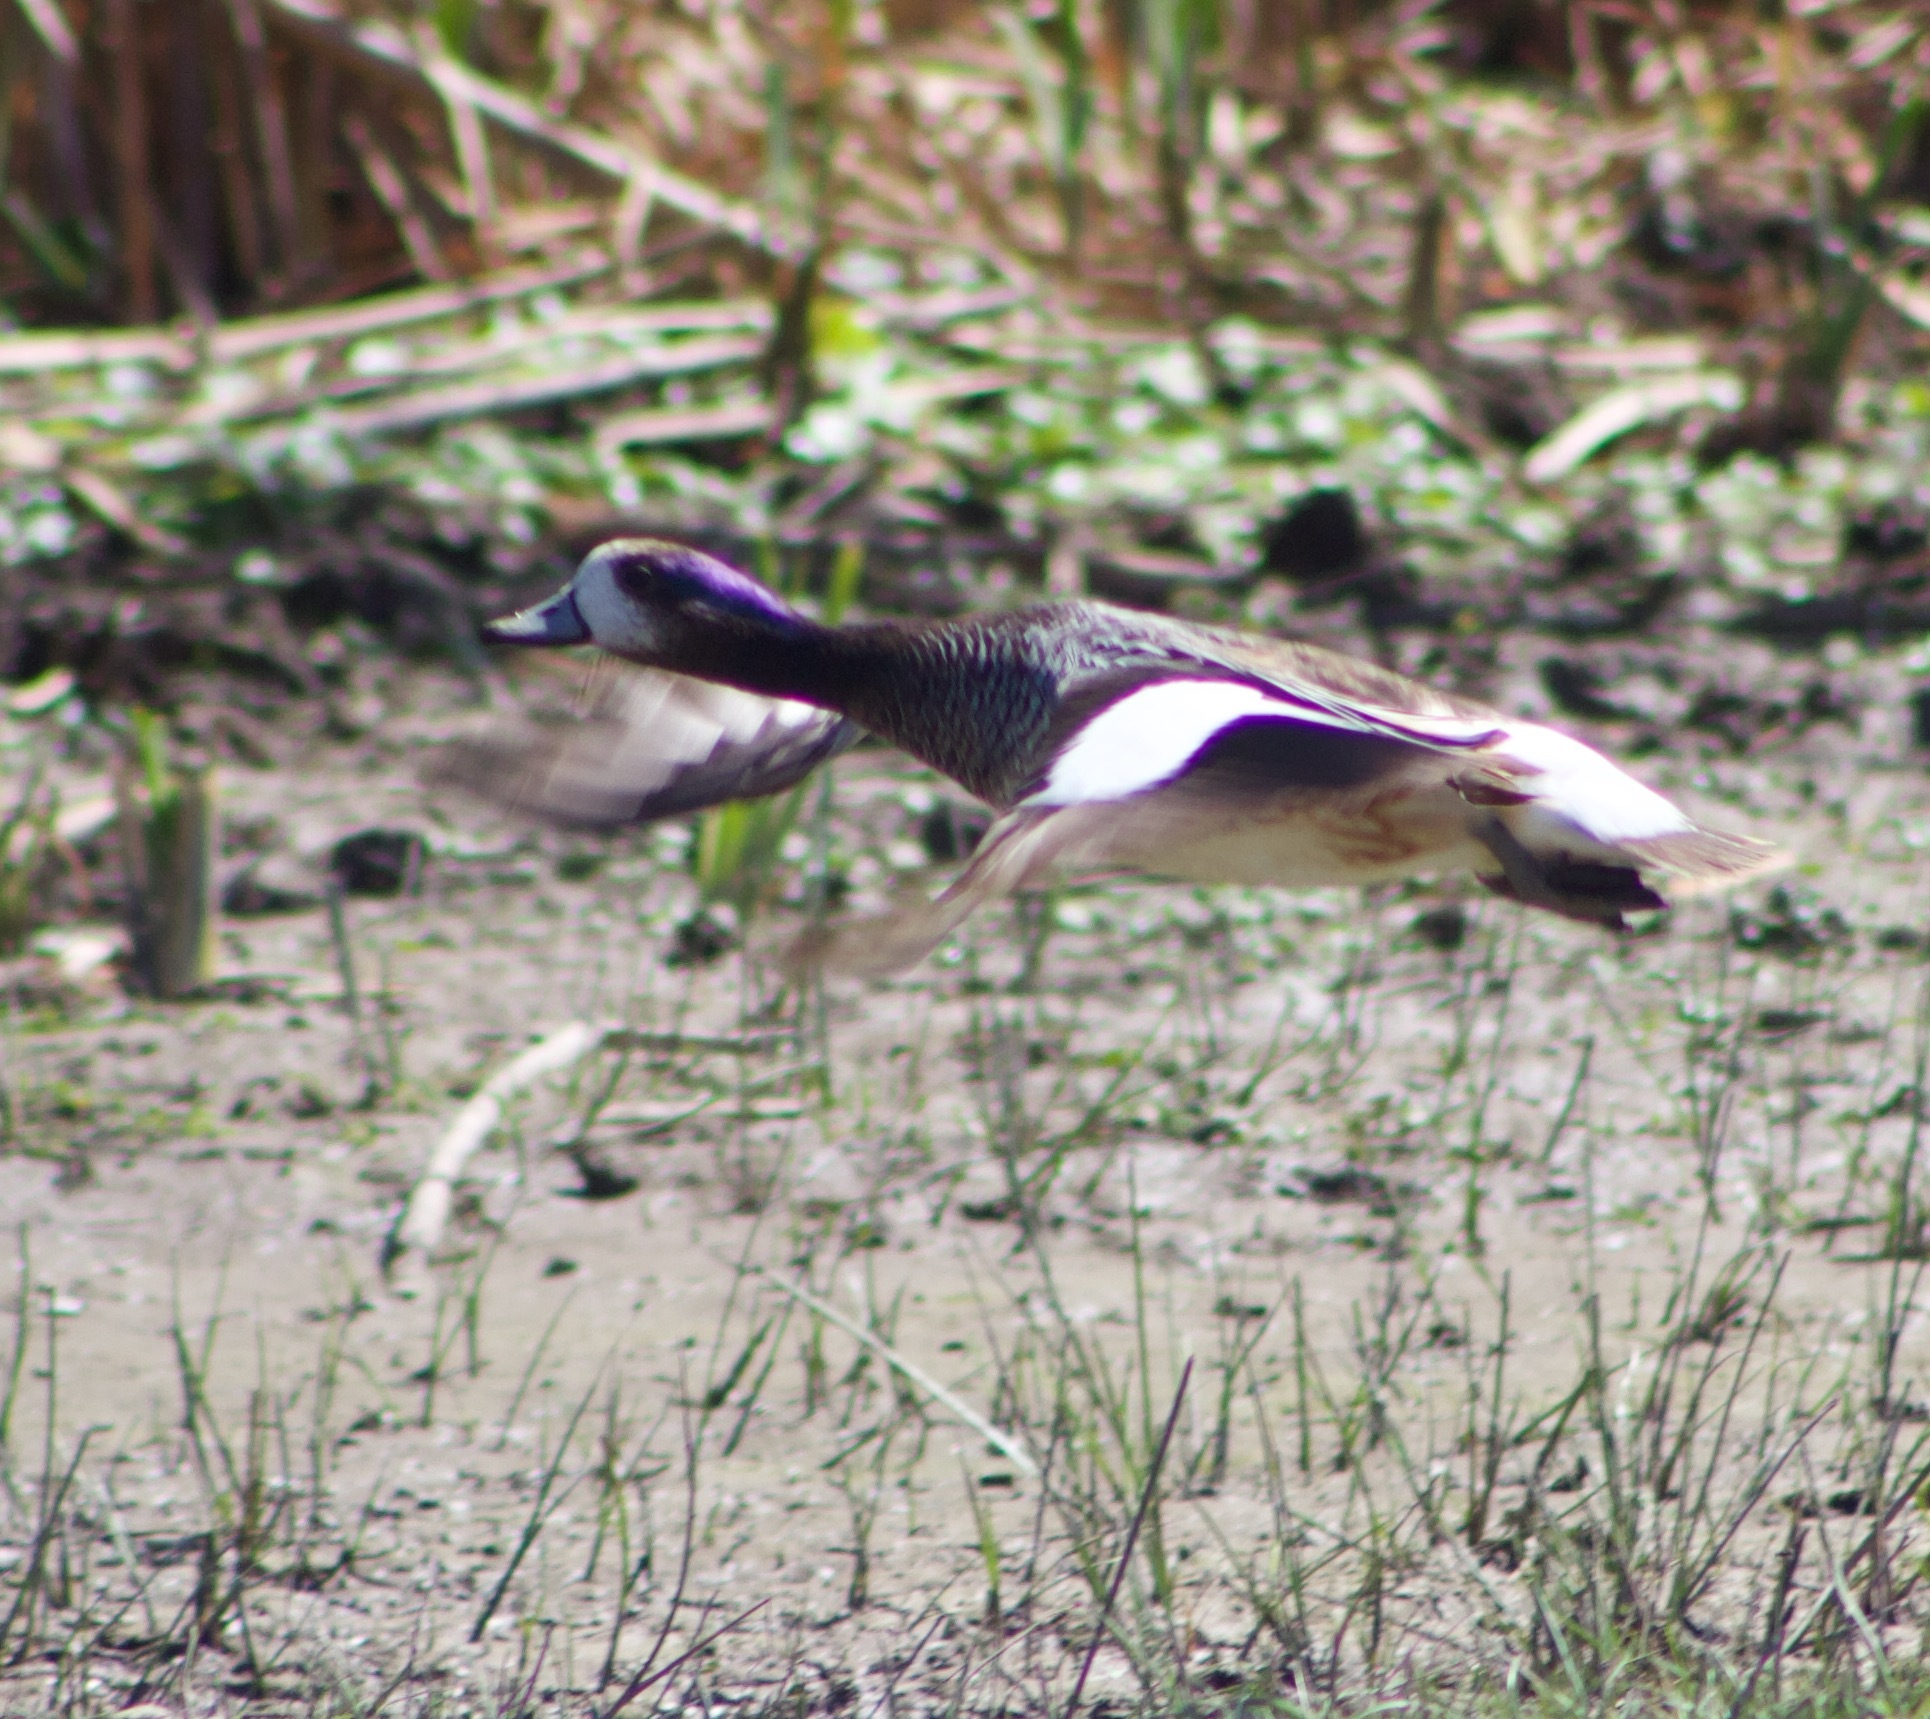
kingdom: Animalia
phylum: Chordata
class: Aves
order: Anseriformes
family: Anatidae
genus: Mareca
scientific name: Mareca sibilatrix
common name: Chiloe wigeon
